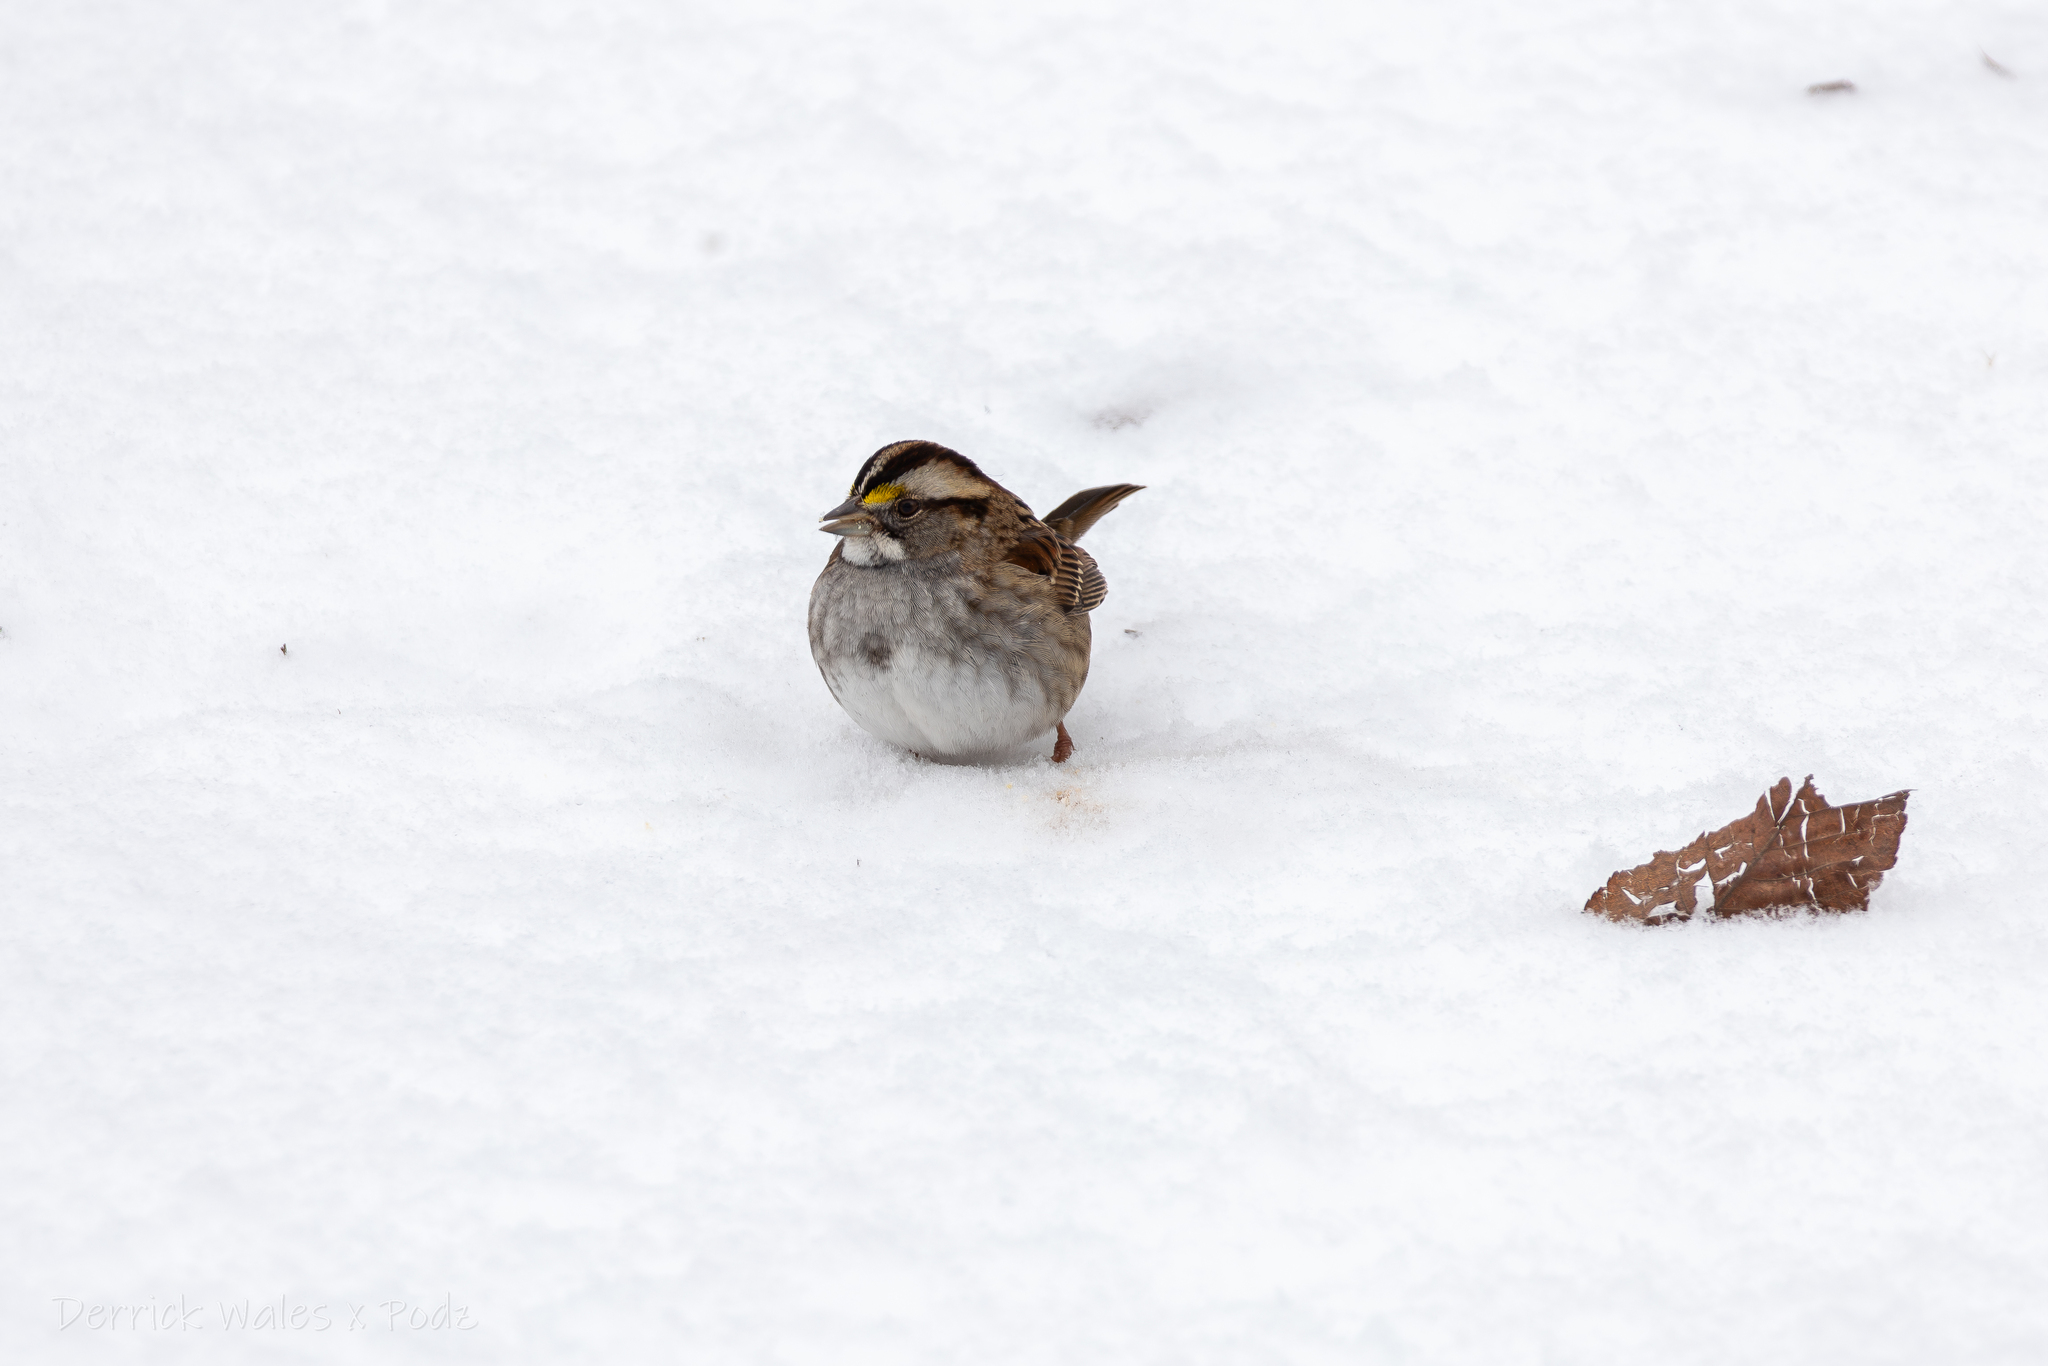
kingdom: Animalia
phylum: Chordata
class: Aves
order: Passeriformes
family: Passerellidae
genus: Zonotrichia
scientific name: Zonotrichia albicollis
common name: White-throated sparrow
